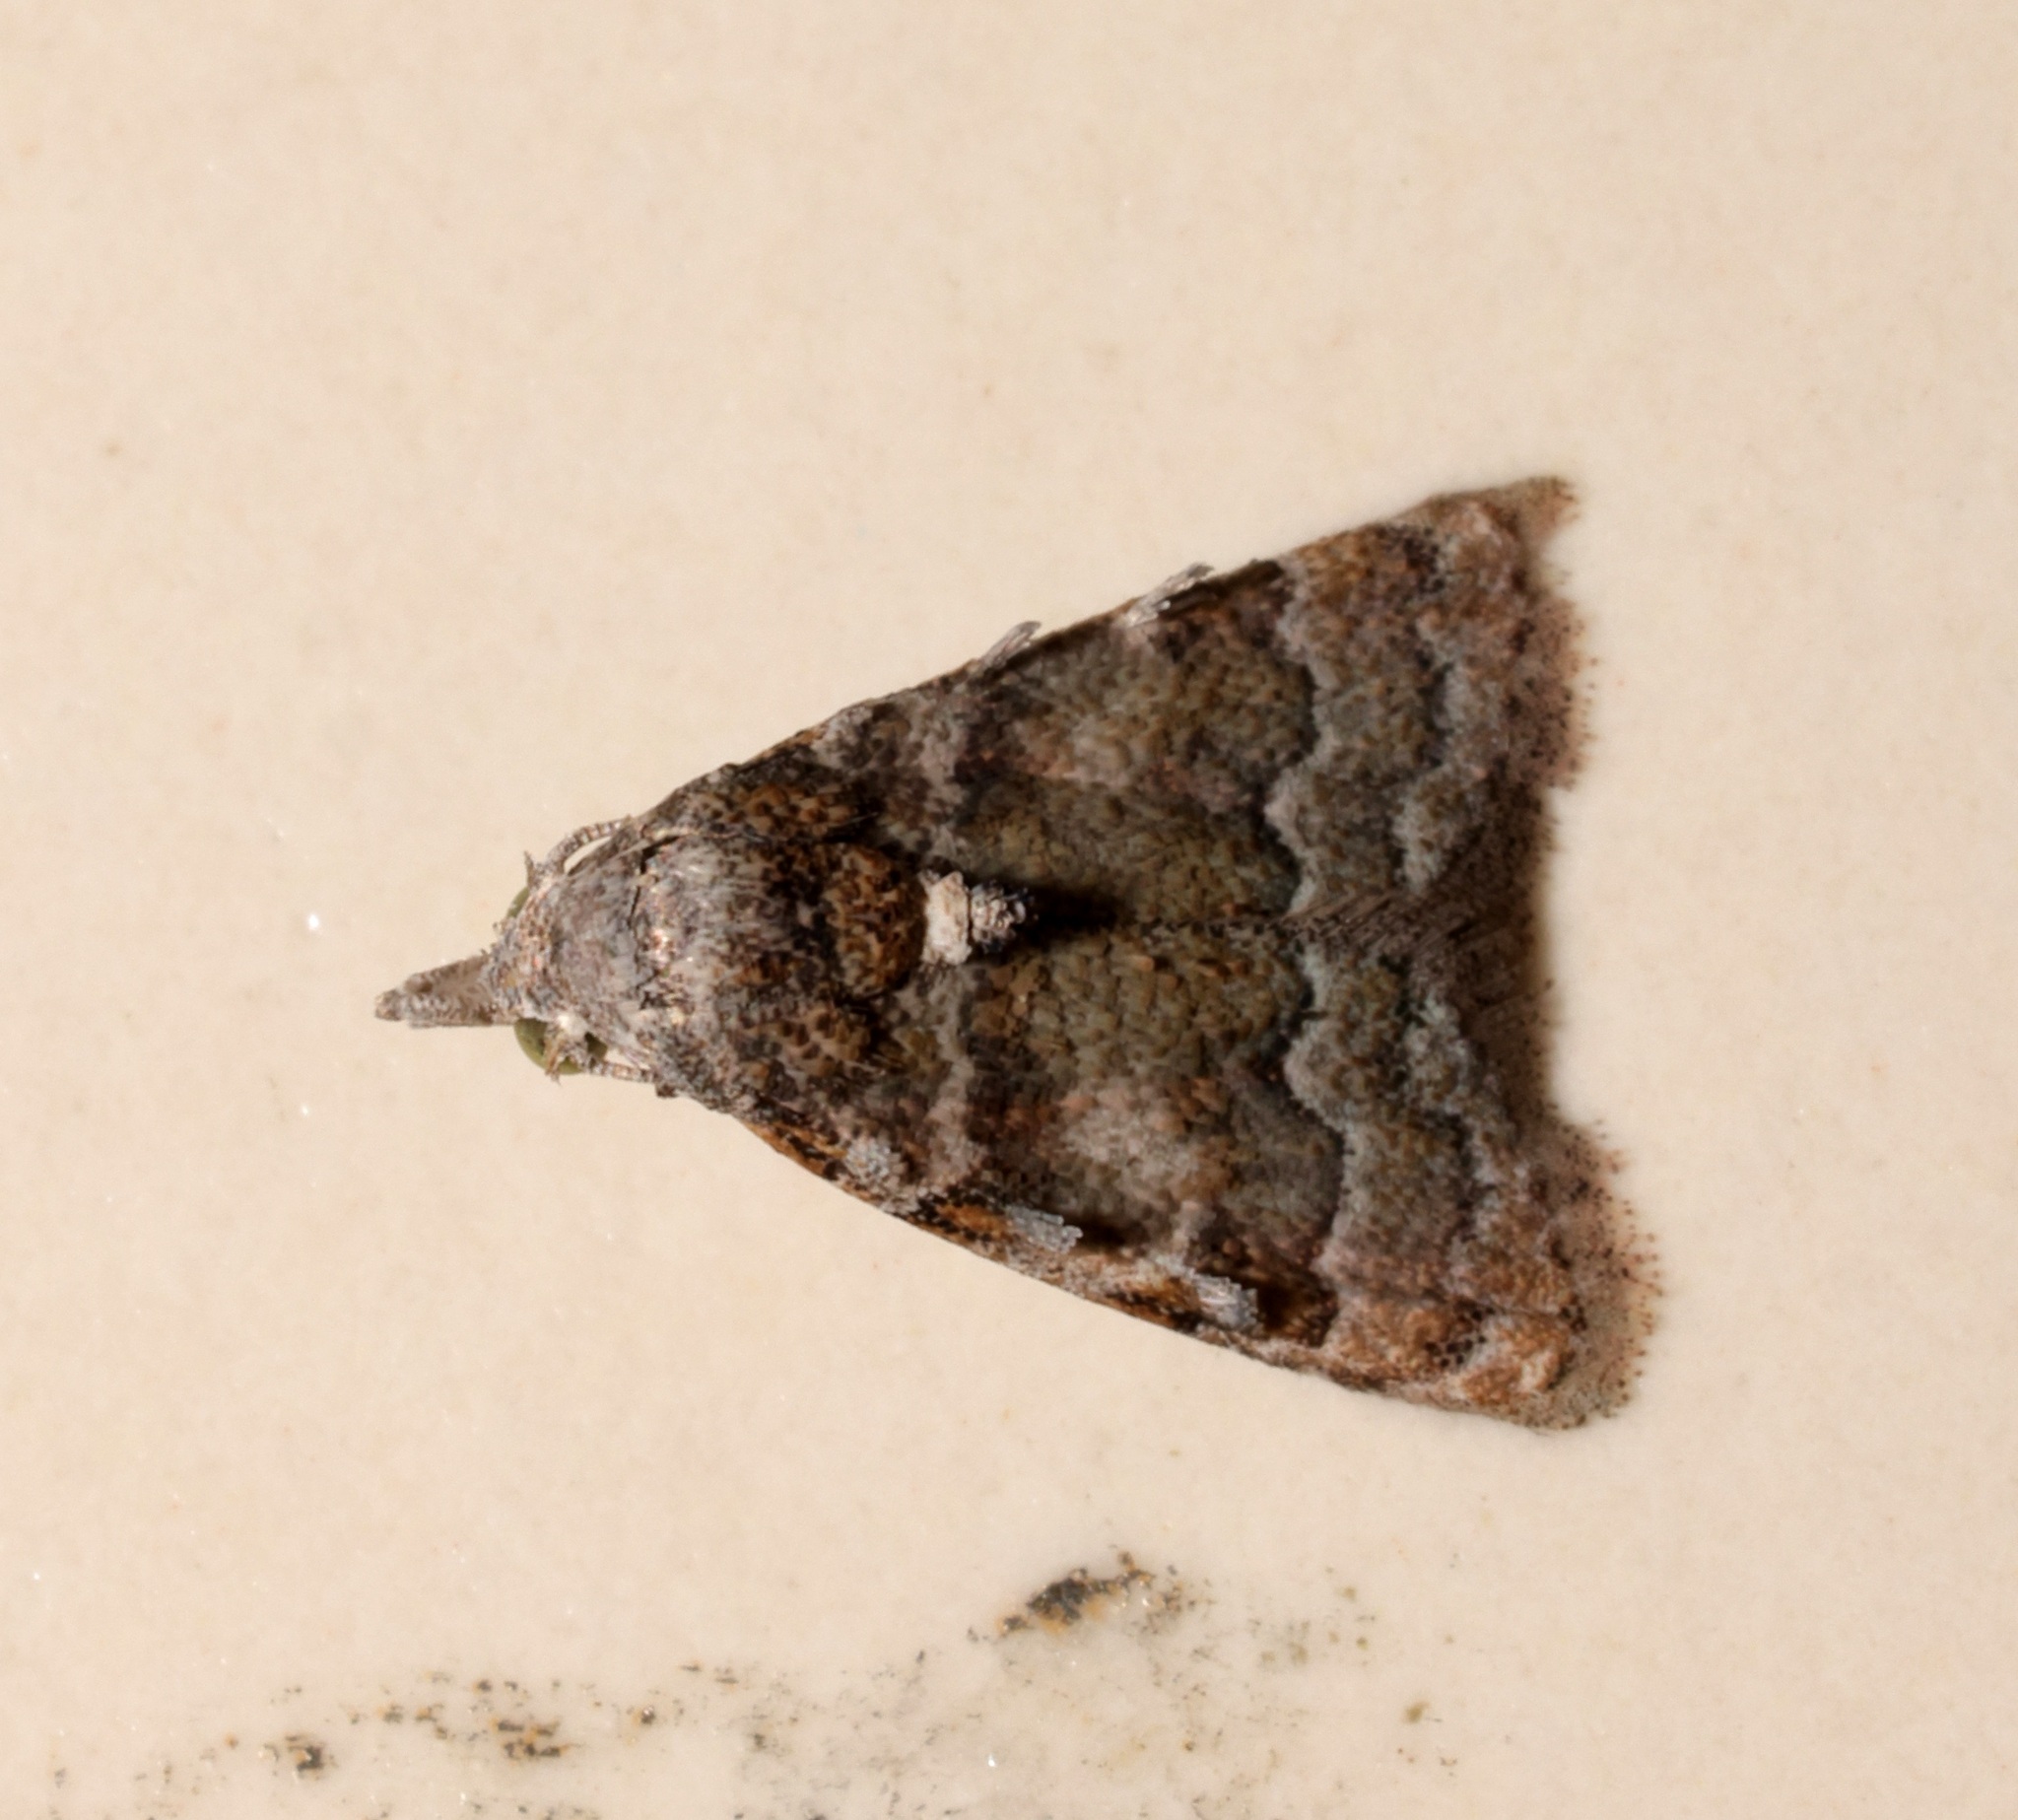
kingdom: Animalia
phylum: Arthropoda
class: Insecta
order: Lepidoptera
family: Nolidae
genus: Nola
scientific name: Nola bifascialis
